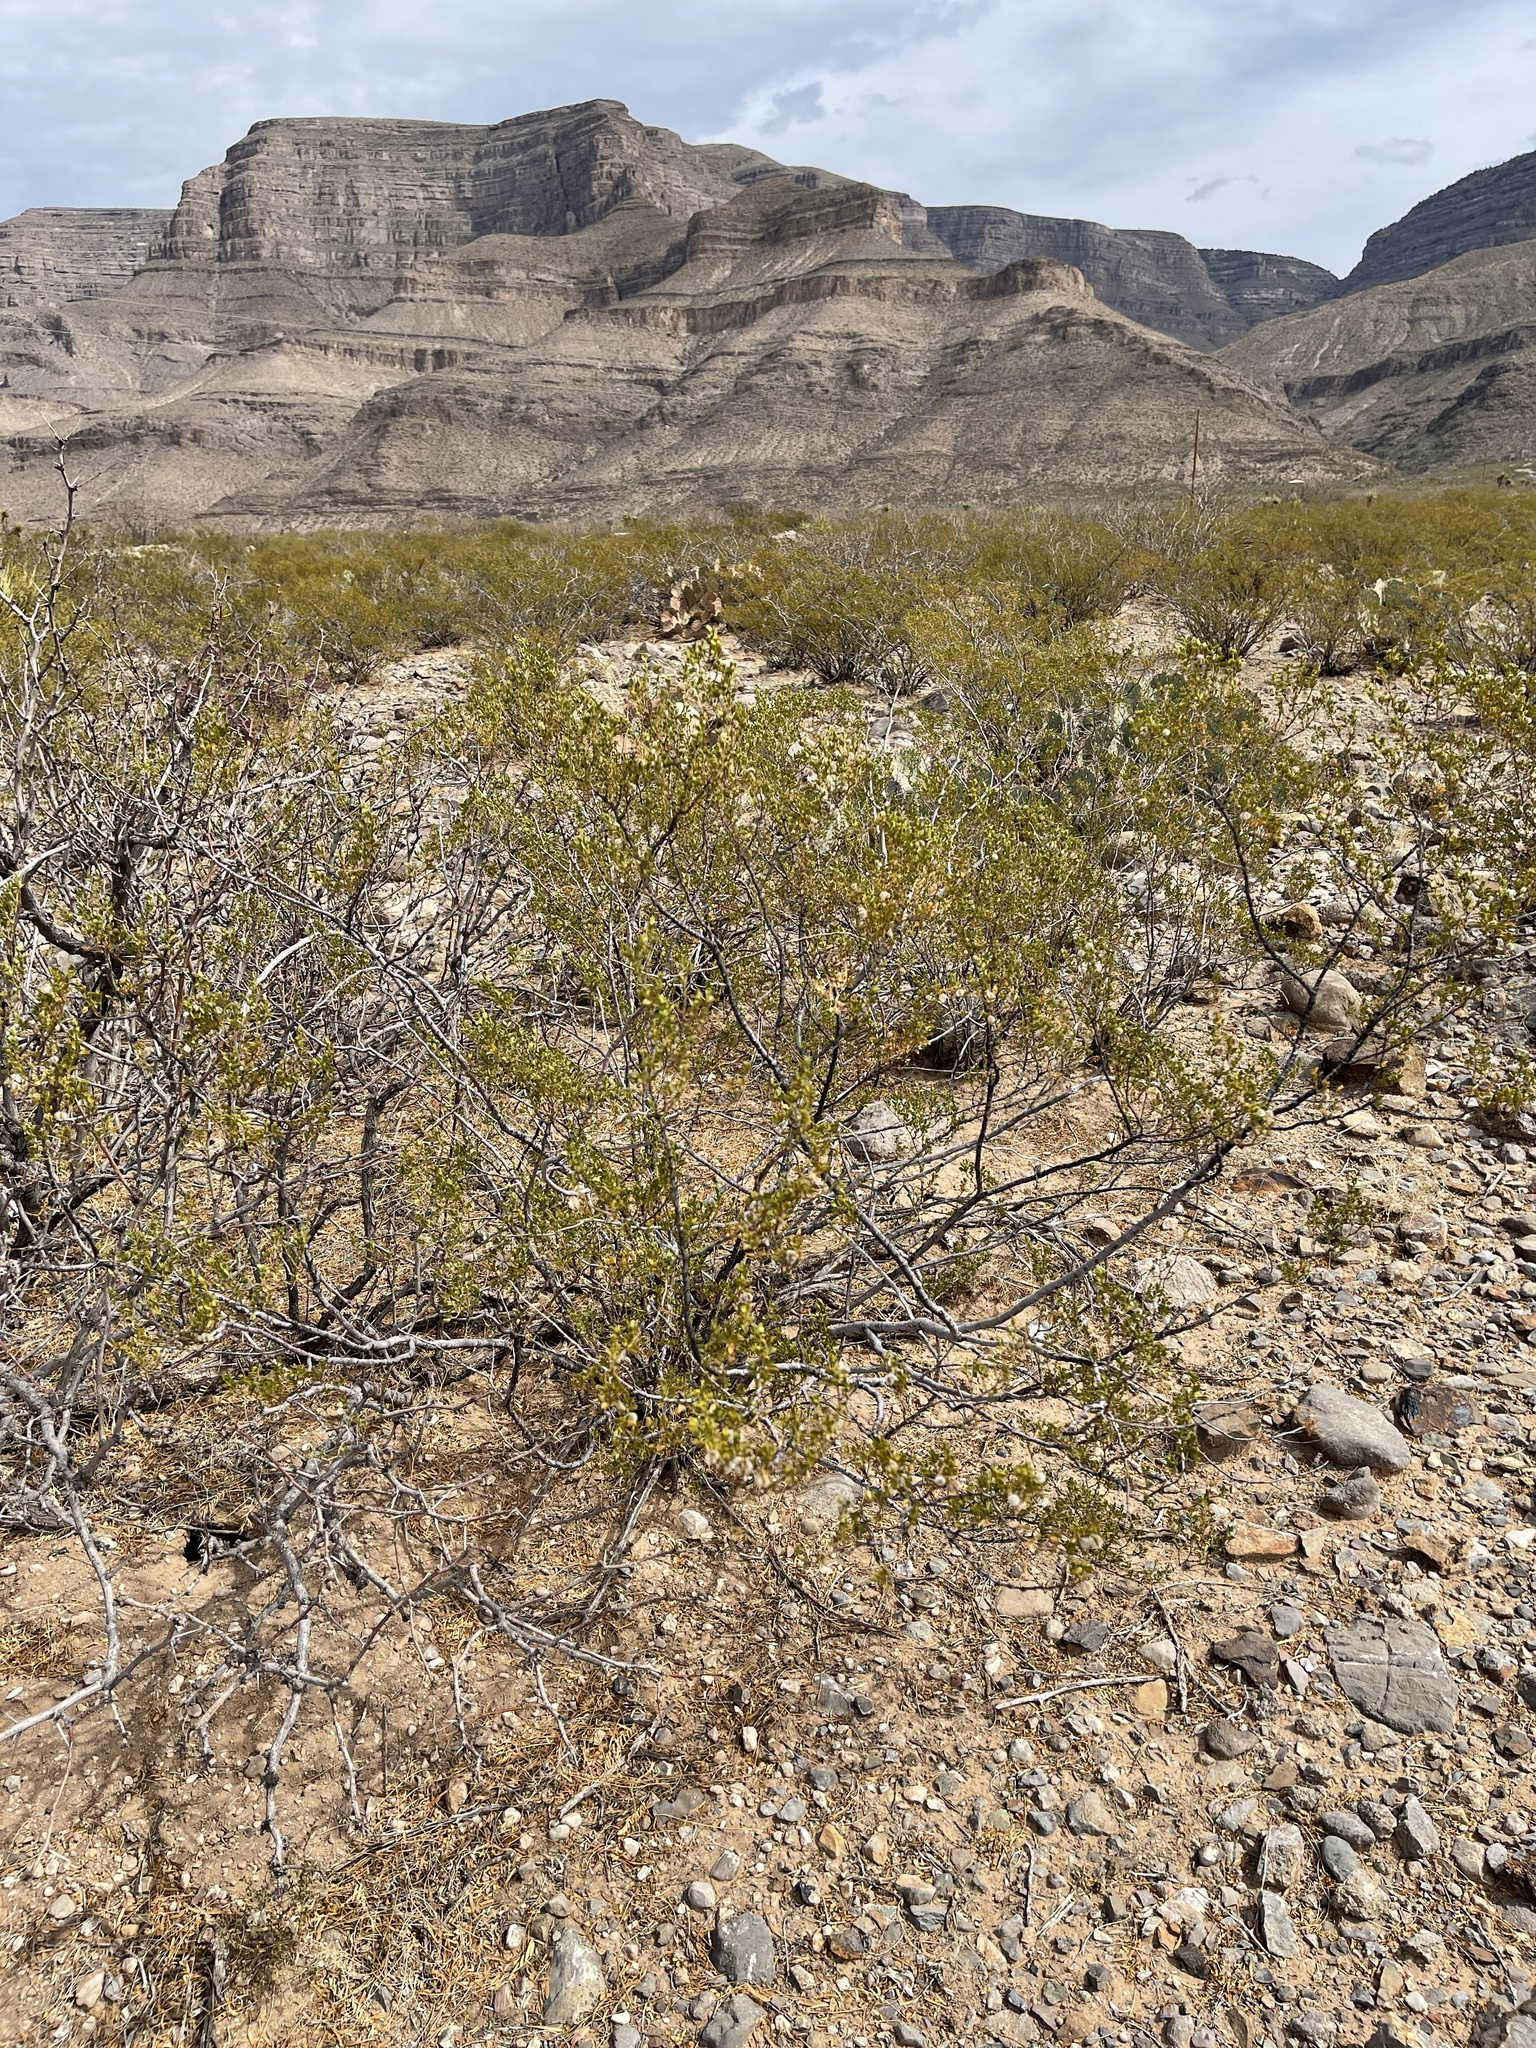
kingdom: Plantae
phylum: Tracheophyta
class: Magnoliopsida
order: Zygophyllales
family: Zygophyllaceae
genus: Larrea
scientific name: Larrea tridentata
